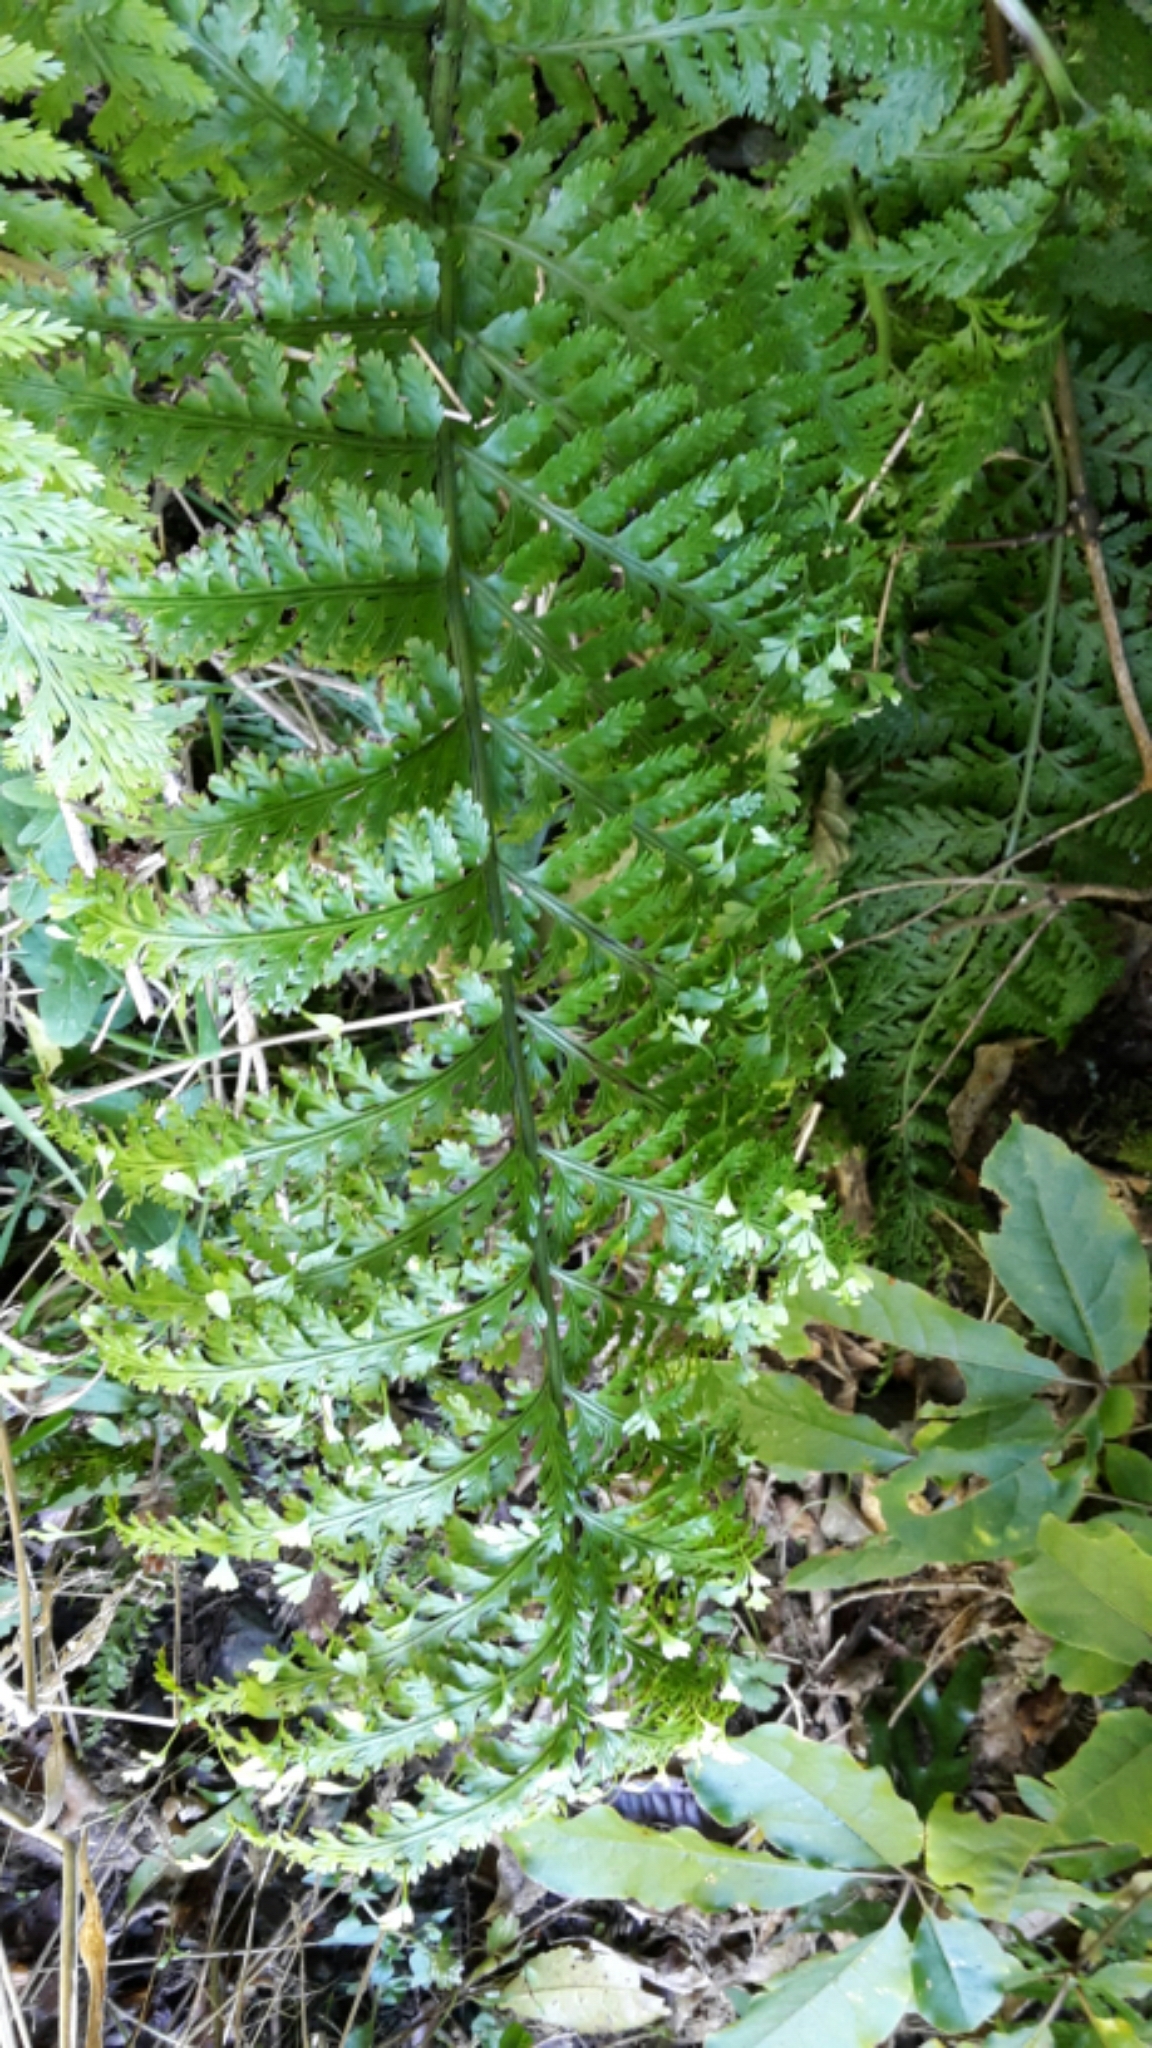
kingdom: Plantae
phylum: Tracheophyta
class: Polypodiopsida
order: Polypodiales
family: Aspleniaceae
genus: Asplenium
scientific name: Asplenium bulbiferum
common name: Mother fern
